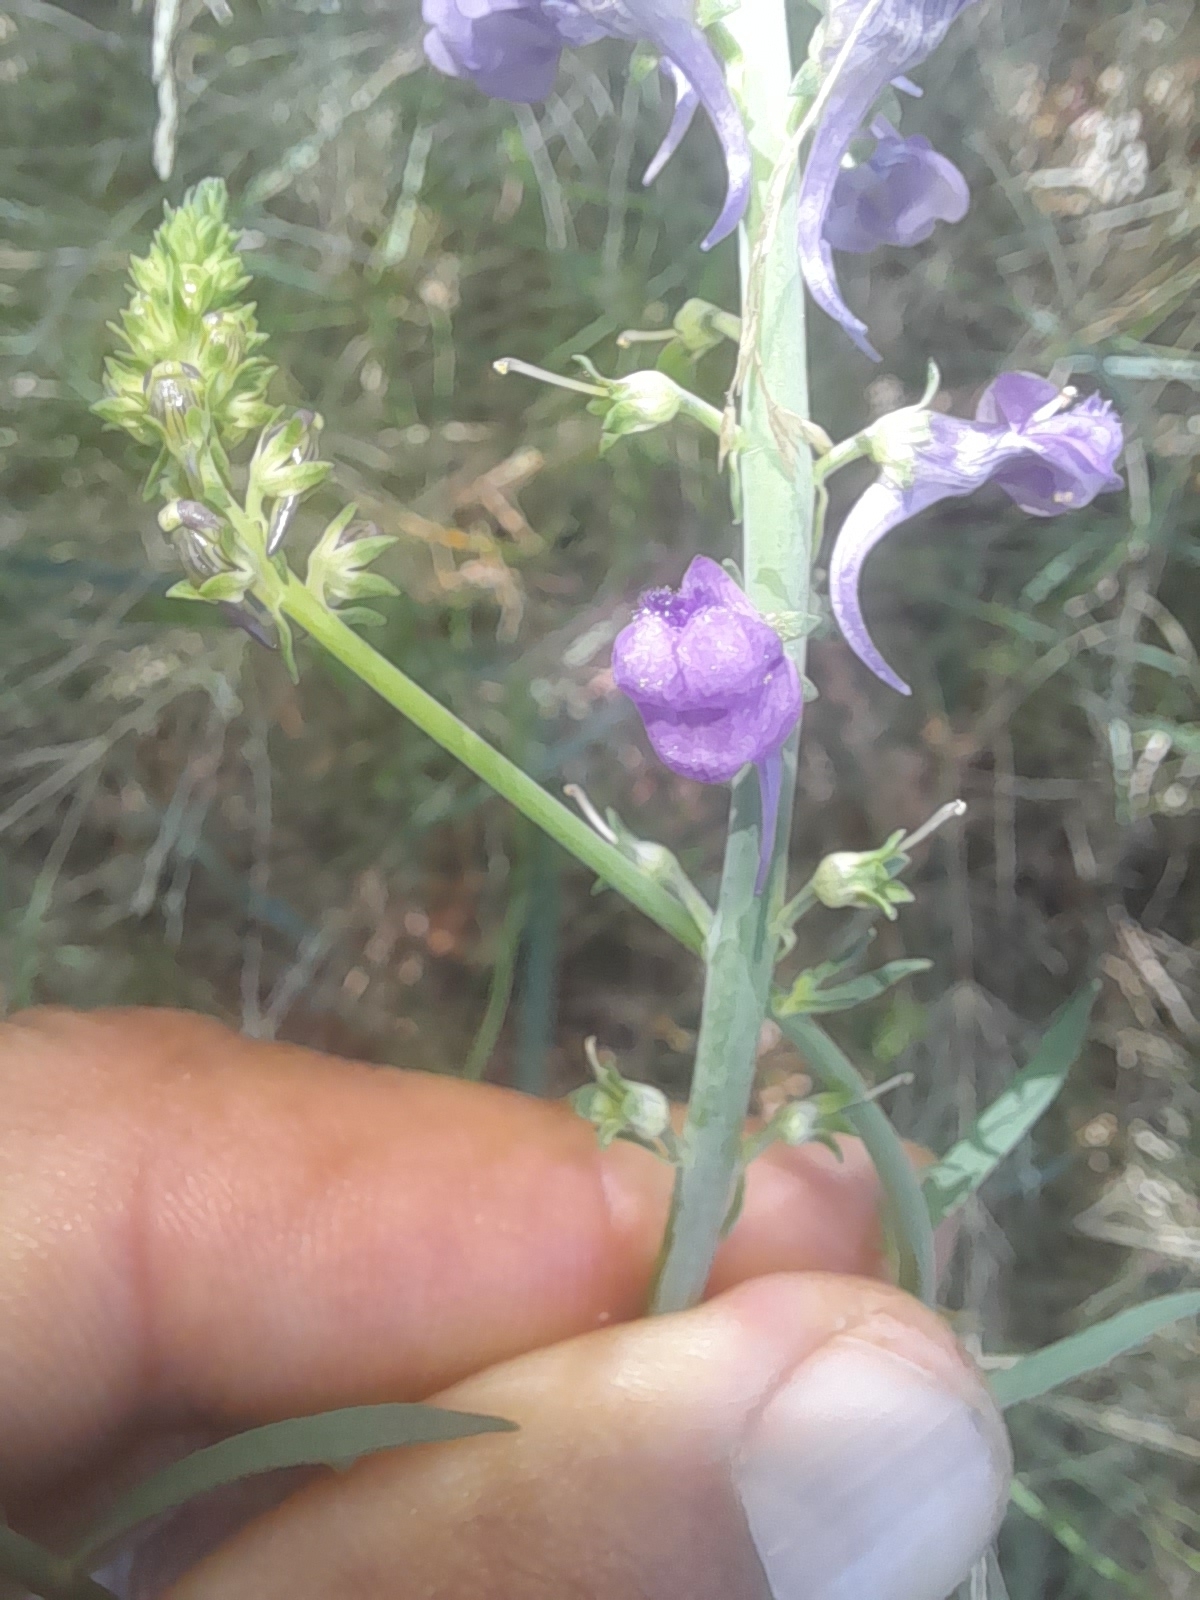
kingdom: Plantae
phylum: Tracheophyta
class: Magnoliopsida
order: Lamiales
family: Plantaginaceae
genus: Linaria
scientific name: Linaria purpurea
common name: Purple toadflax
